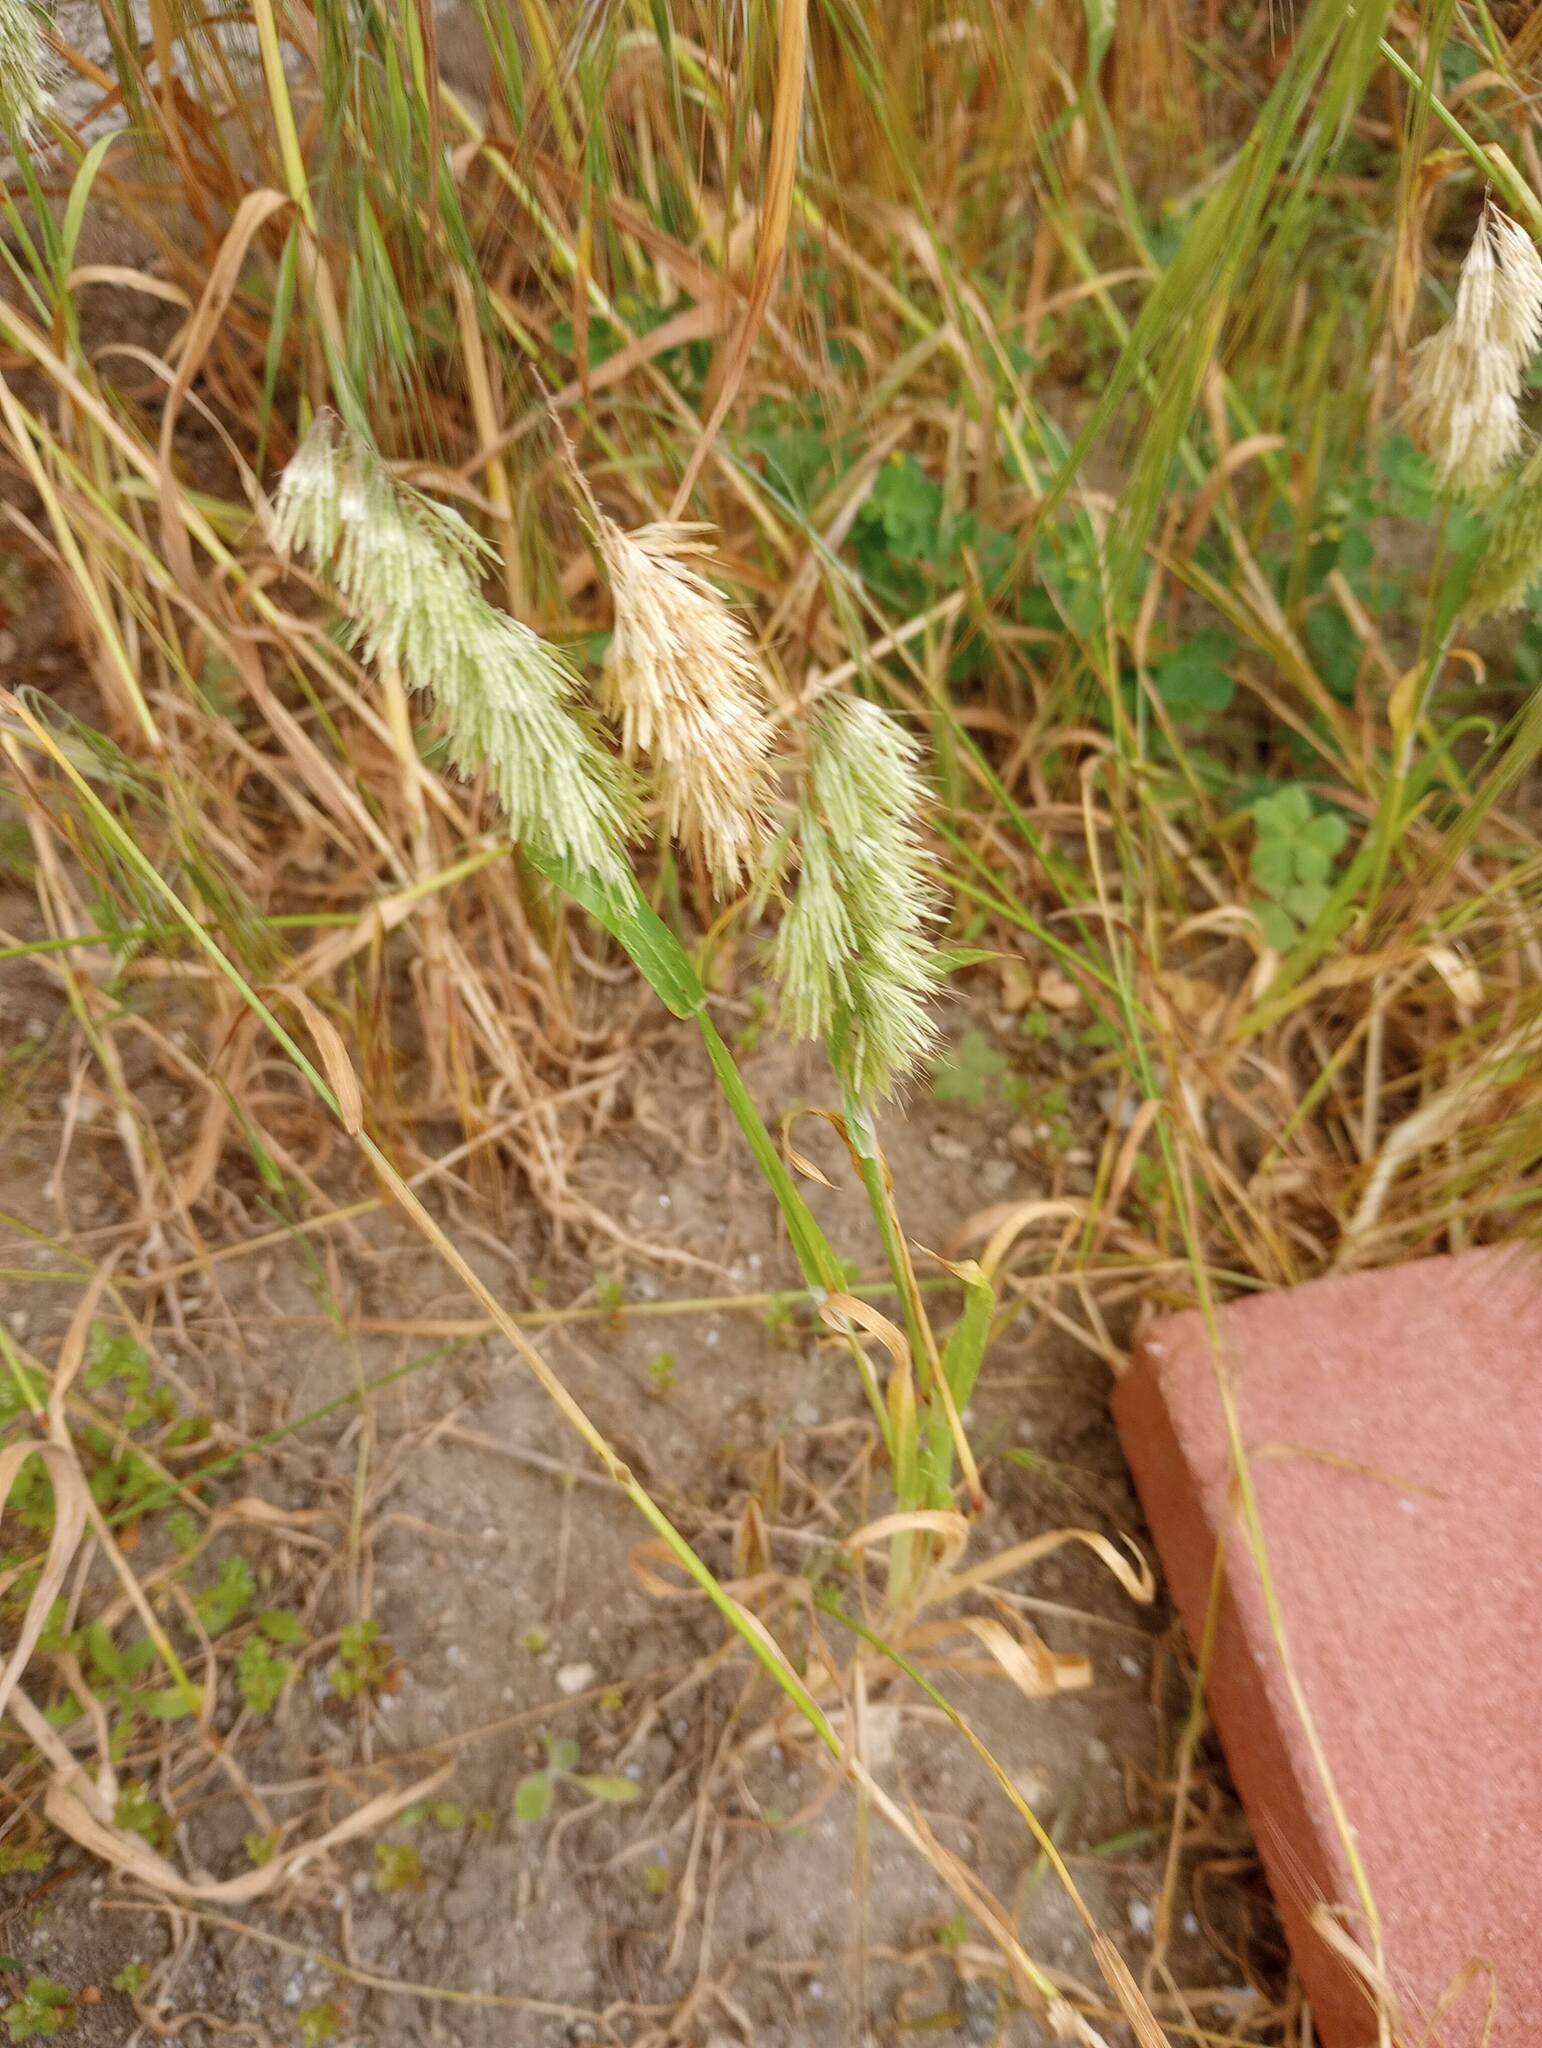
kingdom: Plantae
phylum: Tracheophyta
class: Liliopsida
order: Poales
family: Poaceae
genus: Lamarckia
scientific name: Lamarckia aurea
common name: Golden dog's-tail
